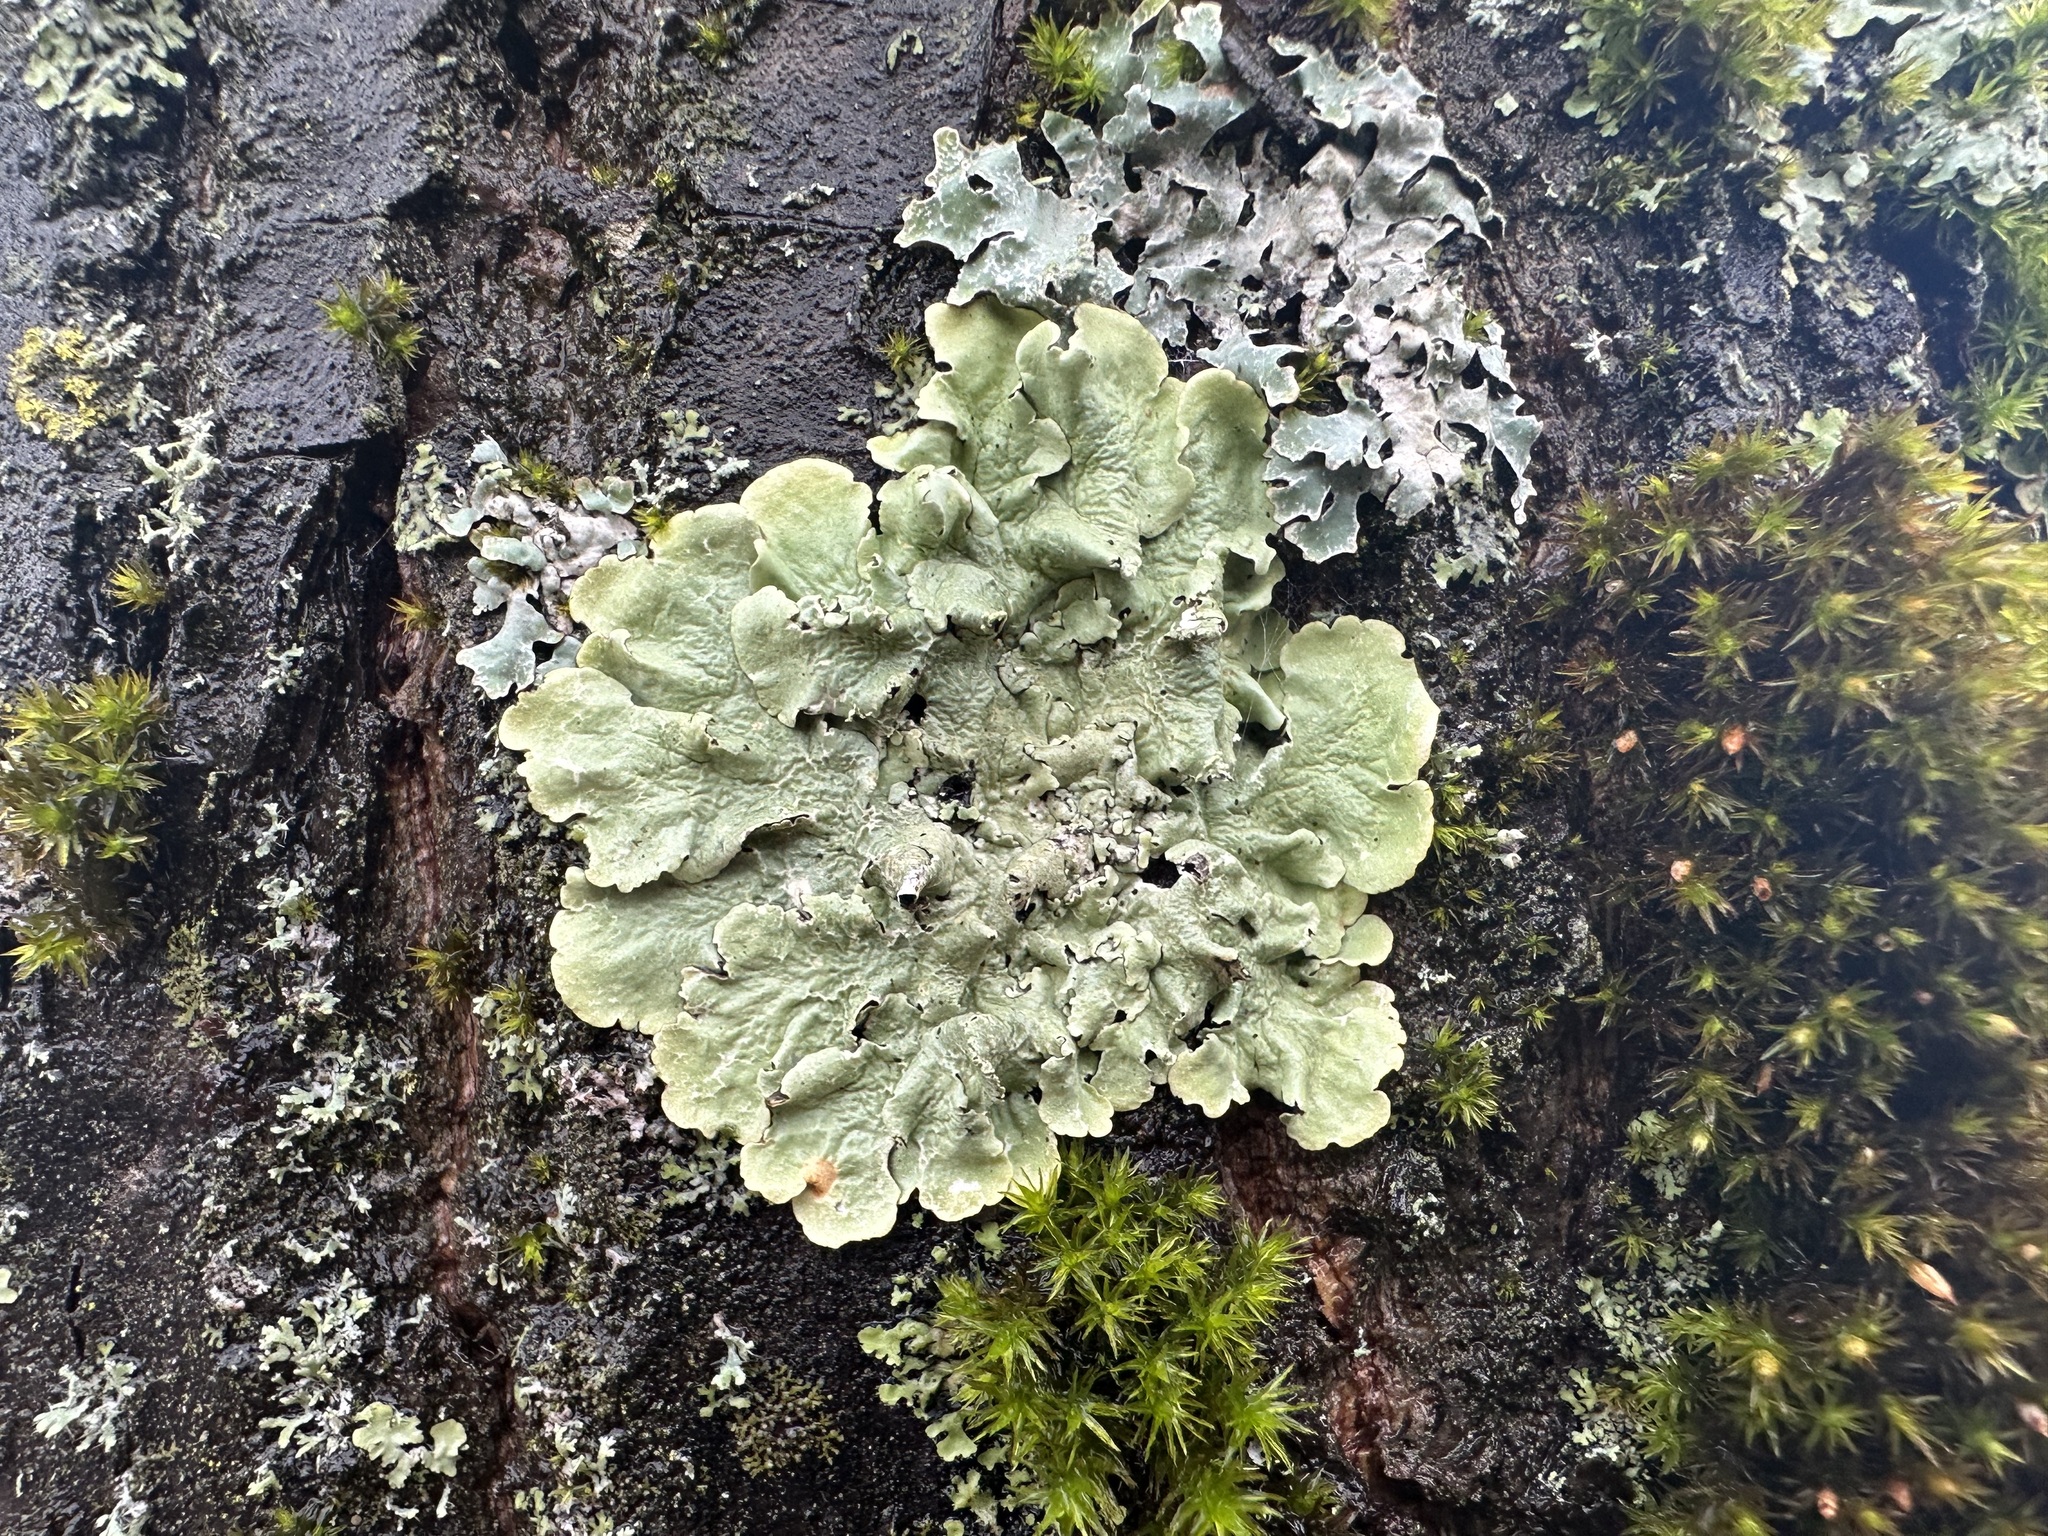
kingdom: Fungi
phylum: Ascomycota
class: Lecanoromycetes
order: Lecanorales
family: Parmeliaceae
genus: Flavoparmelia
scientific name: Flavoparmelia caperata
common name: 40-mile per hour lichen
